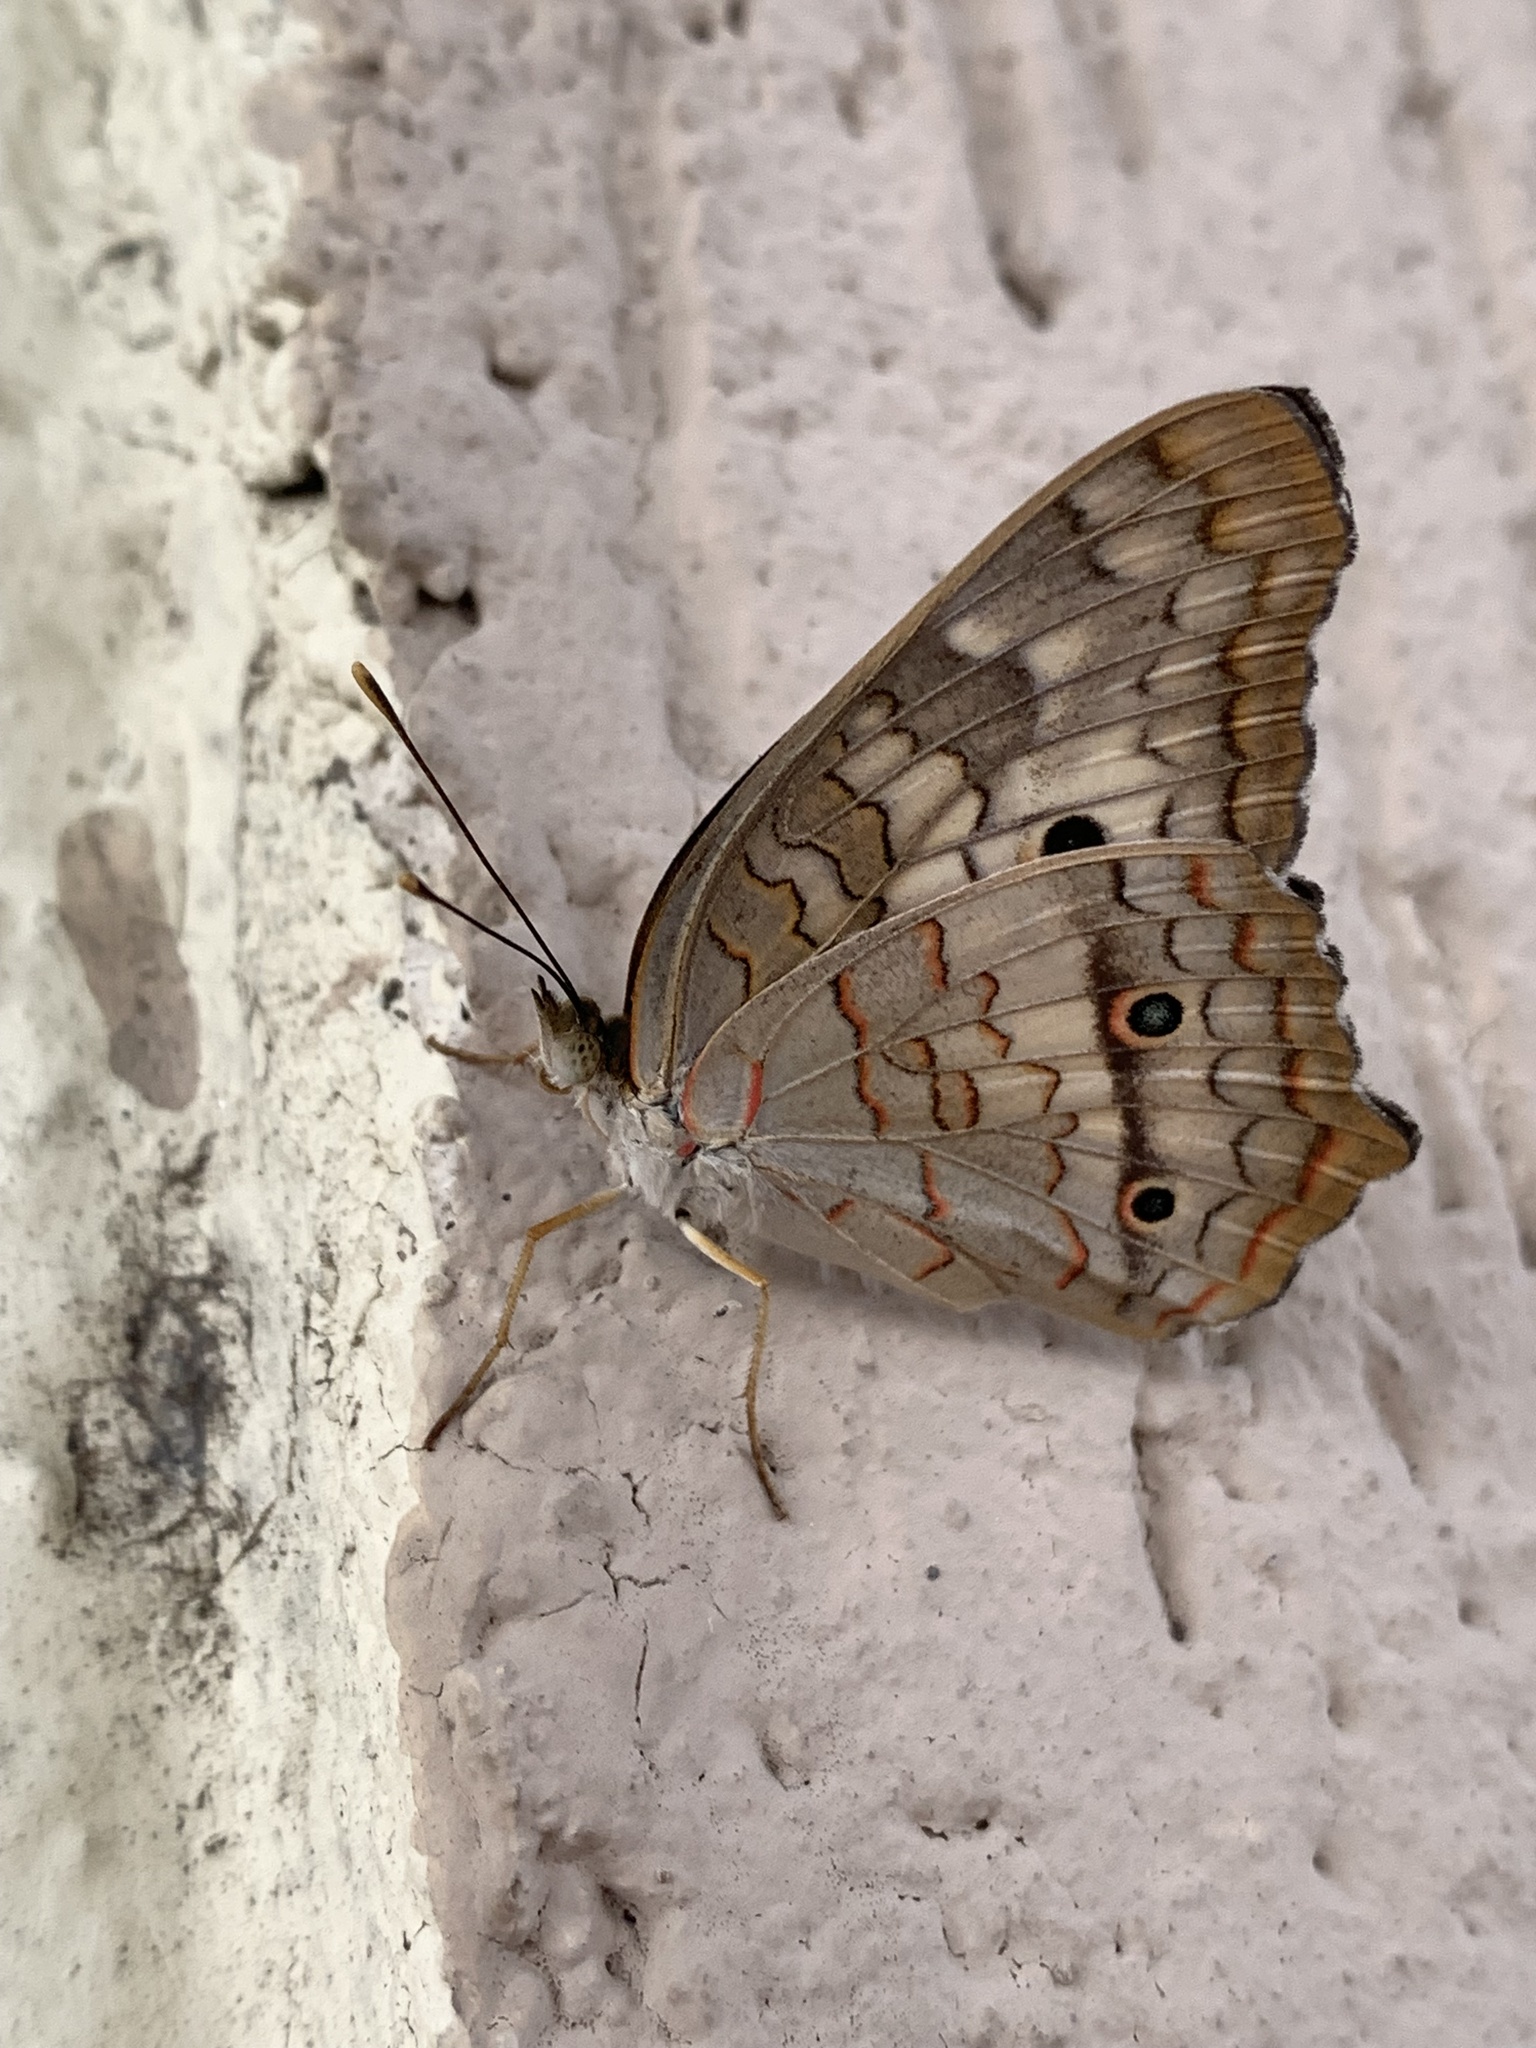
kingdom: Animalia
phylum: Arthropoda
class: Insecta
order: Lepidoptera
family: Nymphalidae
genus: Anartia
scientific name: Anartia jatrophae
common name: White peacock
